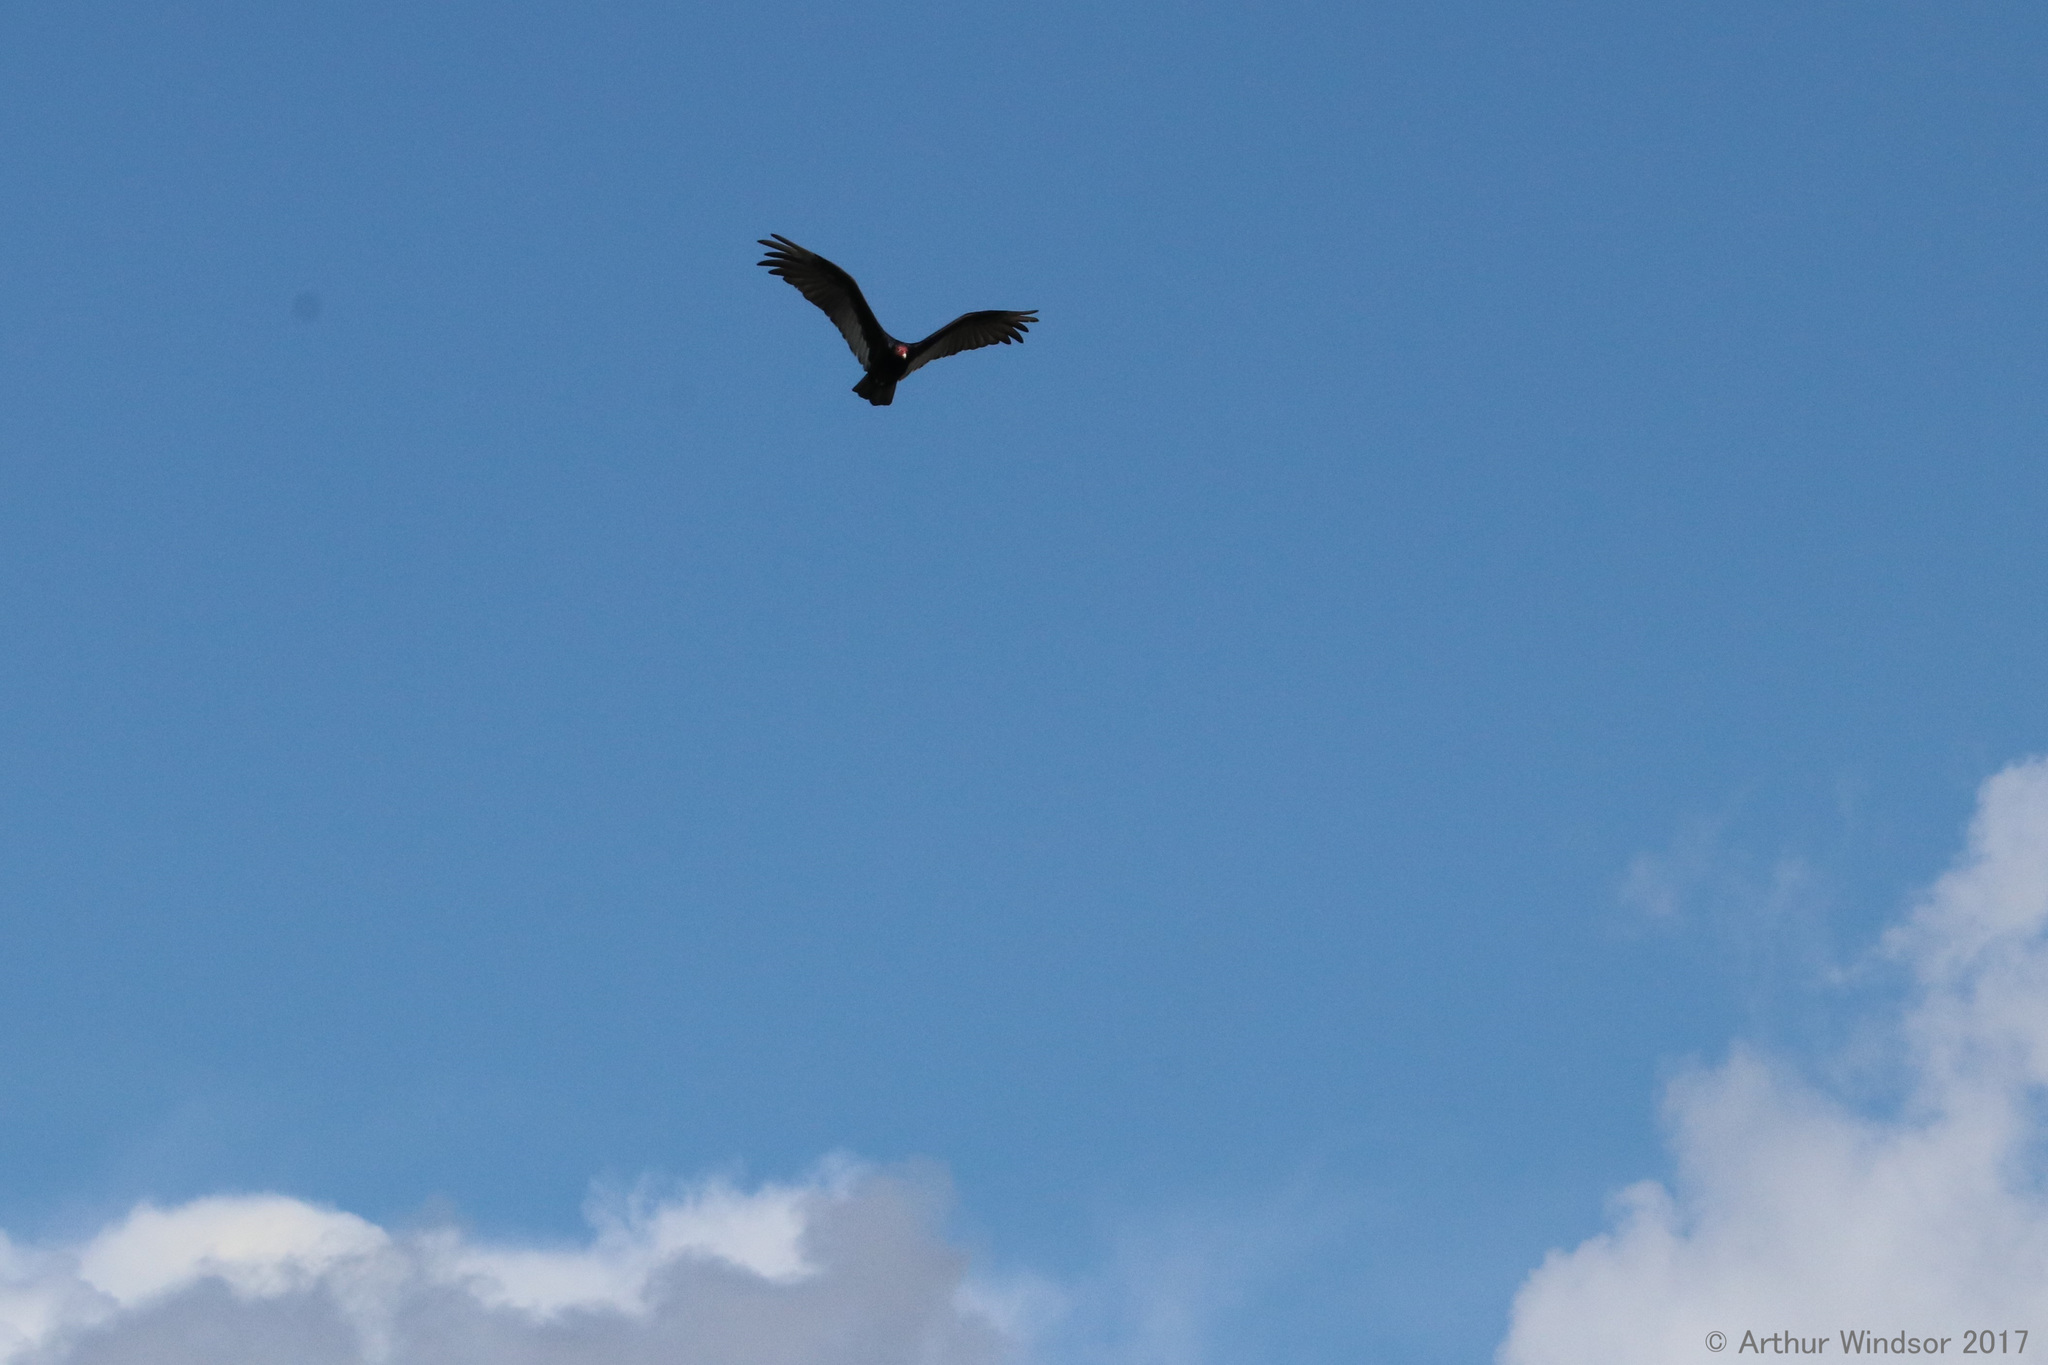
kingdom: Animalia
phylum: Chordata
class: Aves
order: Accipitriformes
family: Cathartidae
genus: Cathartes
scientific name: Cathartes aura
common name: Turkey vulture
